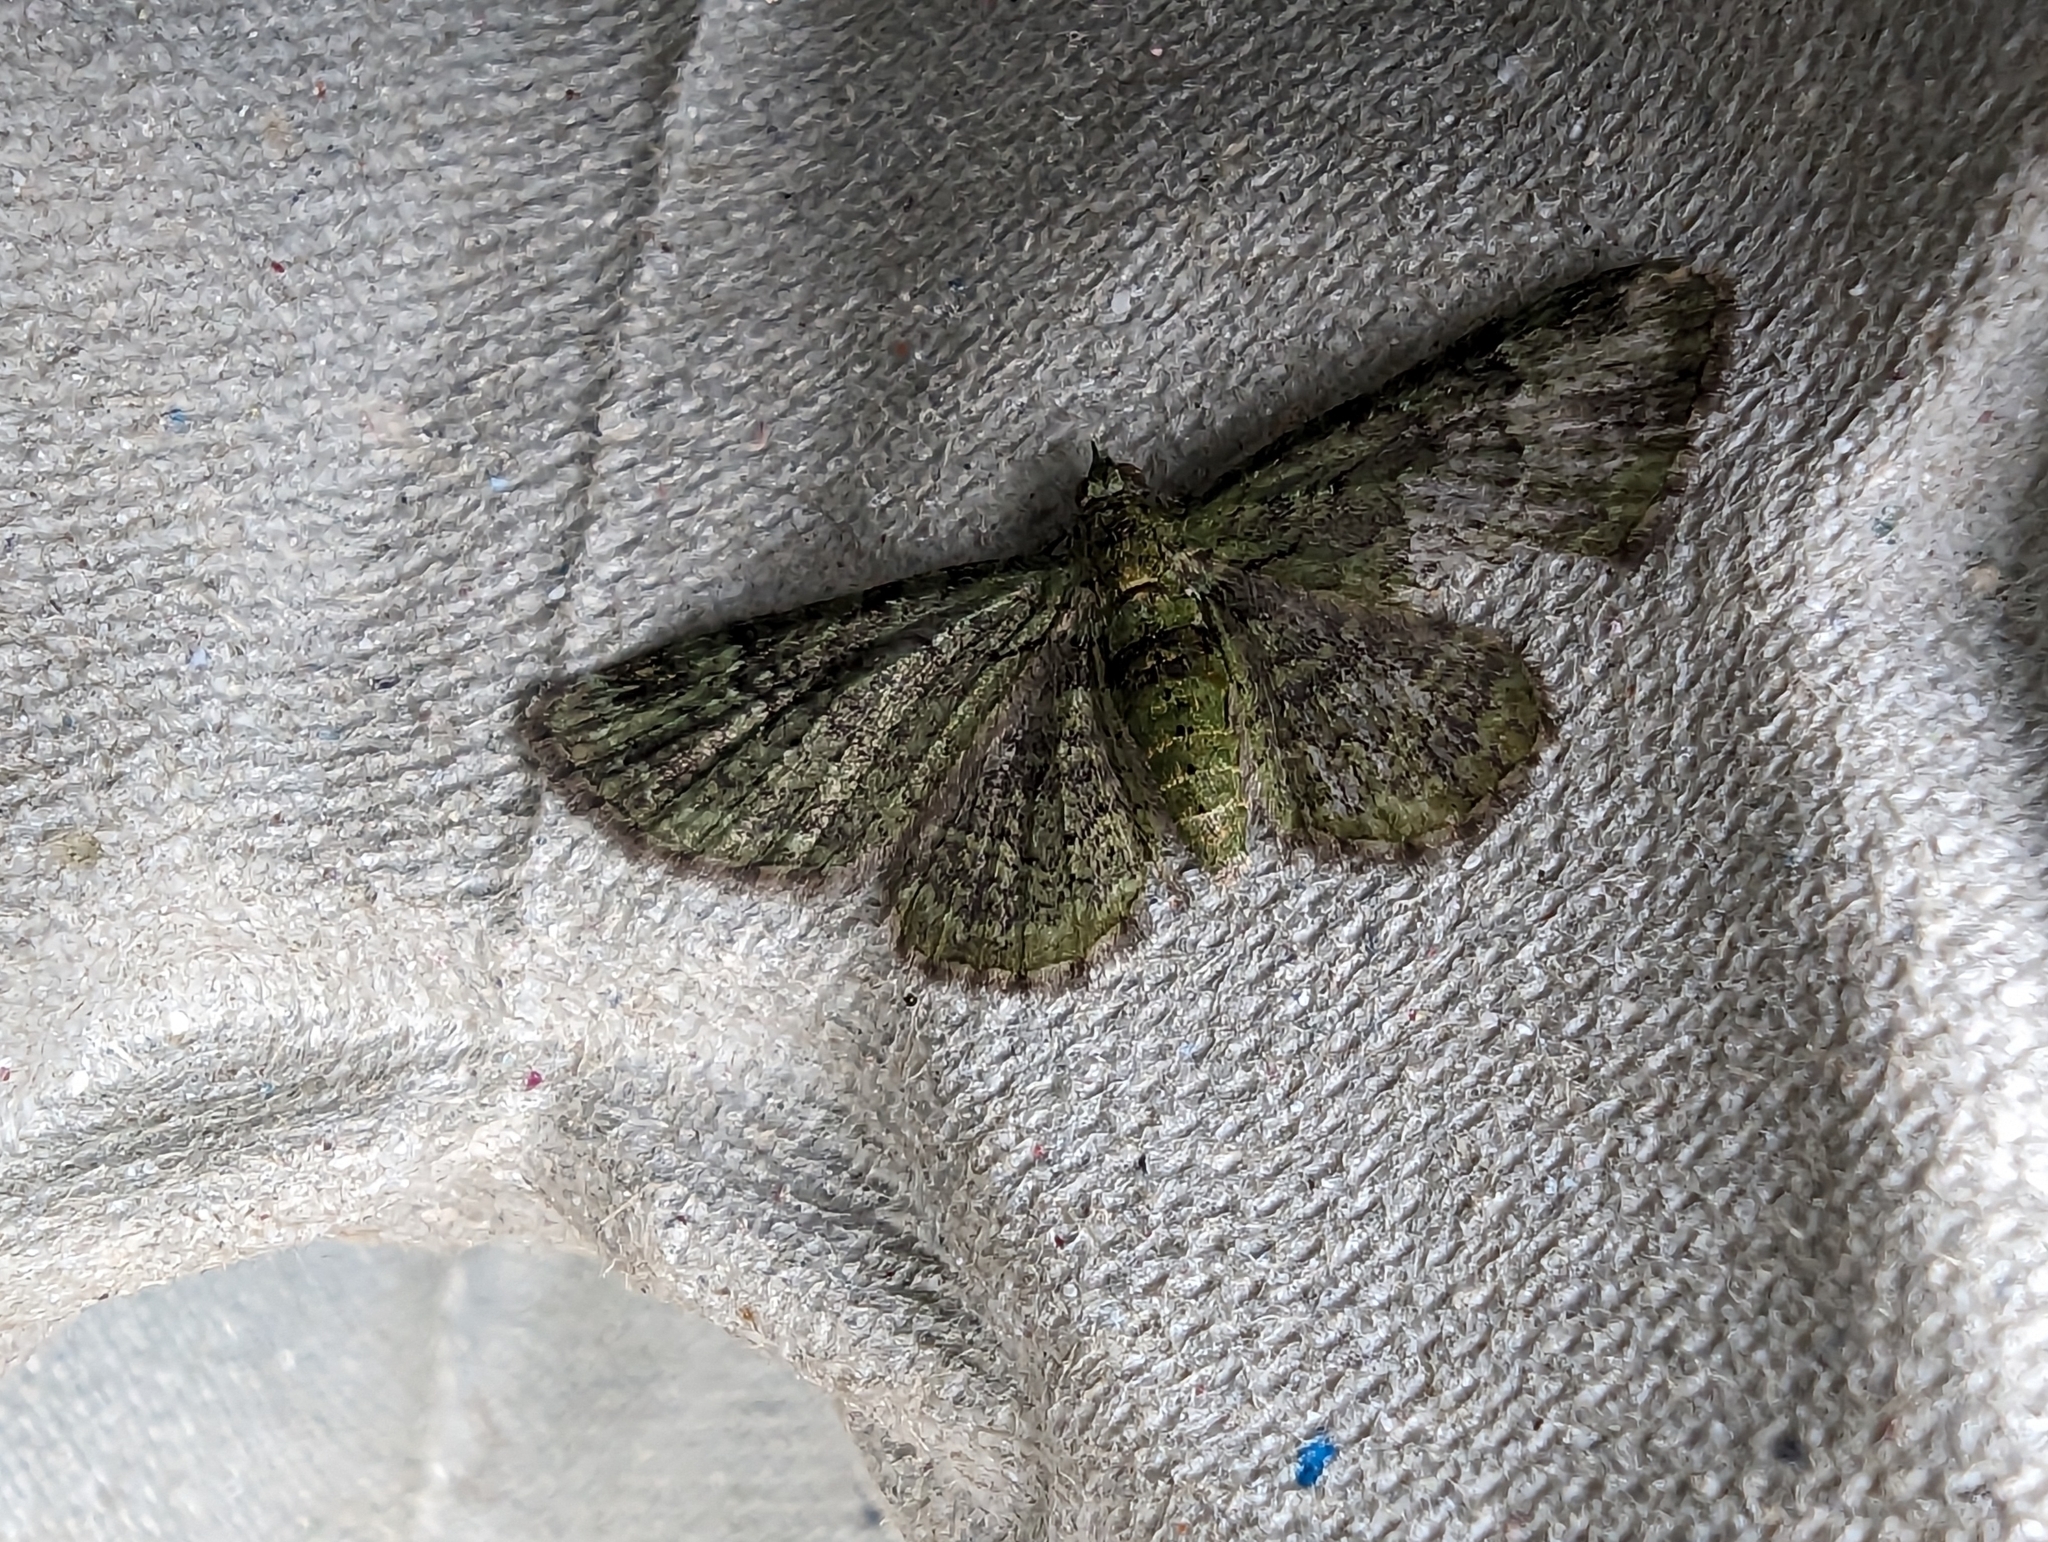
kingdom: Animalia
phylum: Arthropoda
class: Insecta
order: Lepidoptera
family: Geometridae
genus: Pasiphila
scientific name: Pasiphila rectangulata
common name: Green pug
